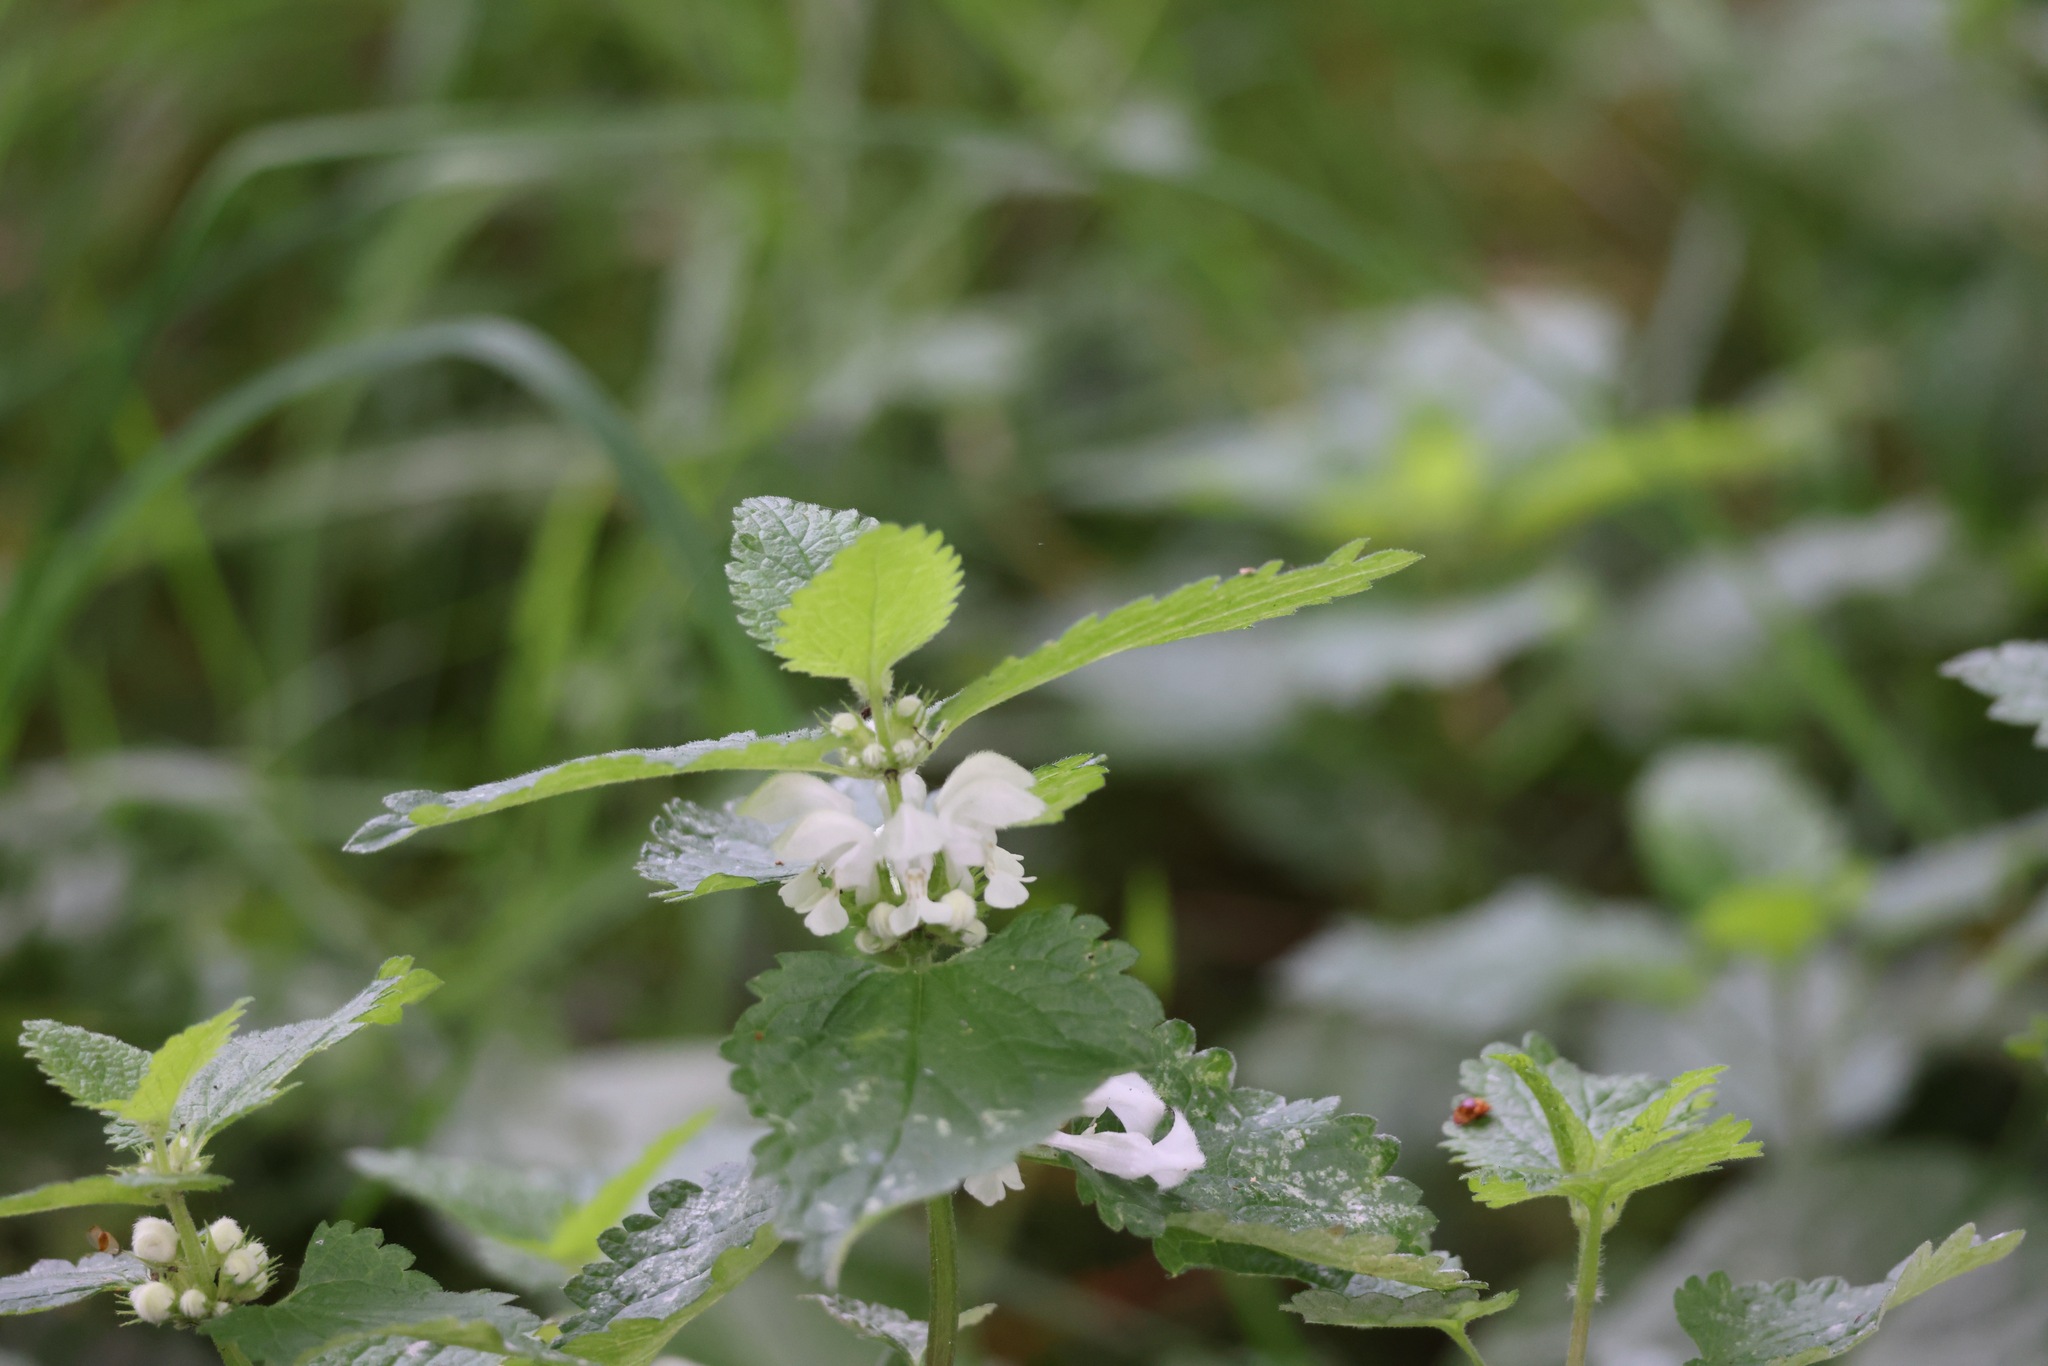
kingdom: Plantae
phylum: Tracheophyta
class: Magnoliopsida
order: Lamiales
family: Lamiaceae
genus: Lamium
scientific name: Lamium album
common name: White dead-nettle
